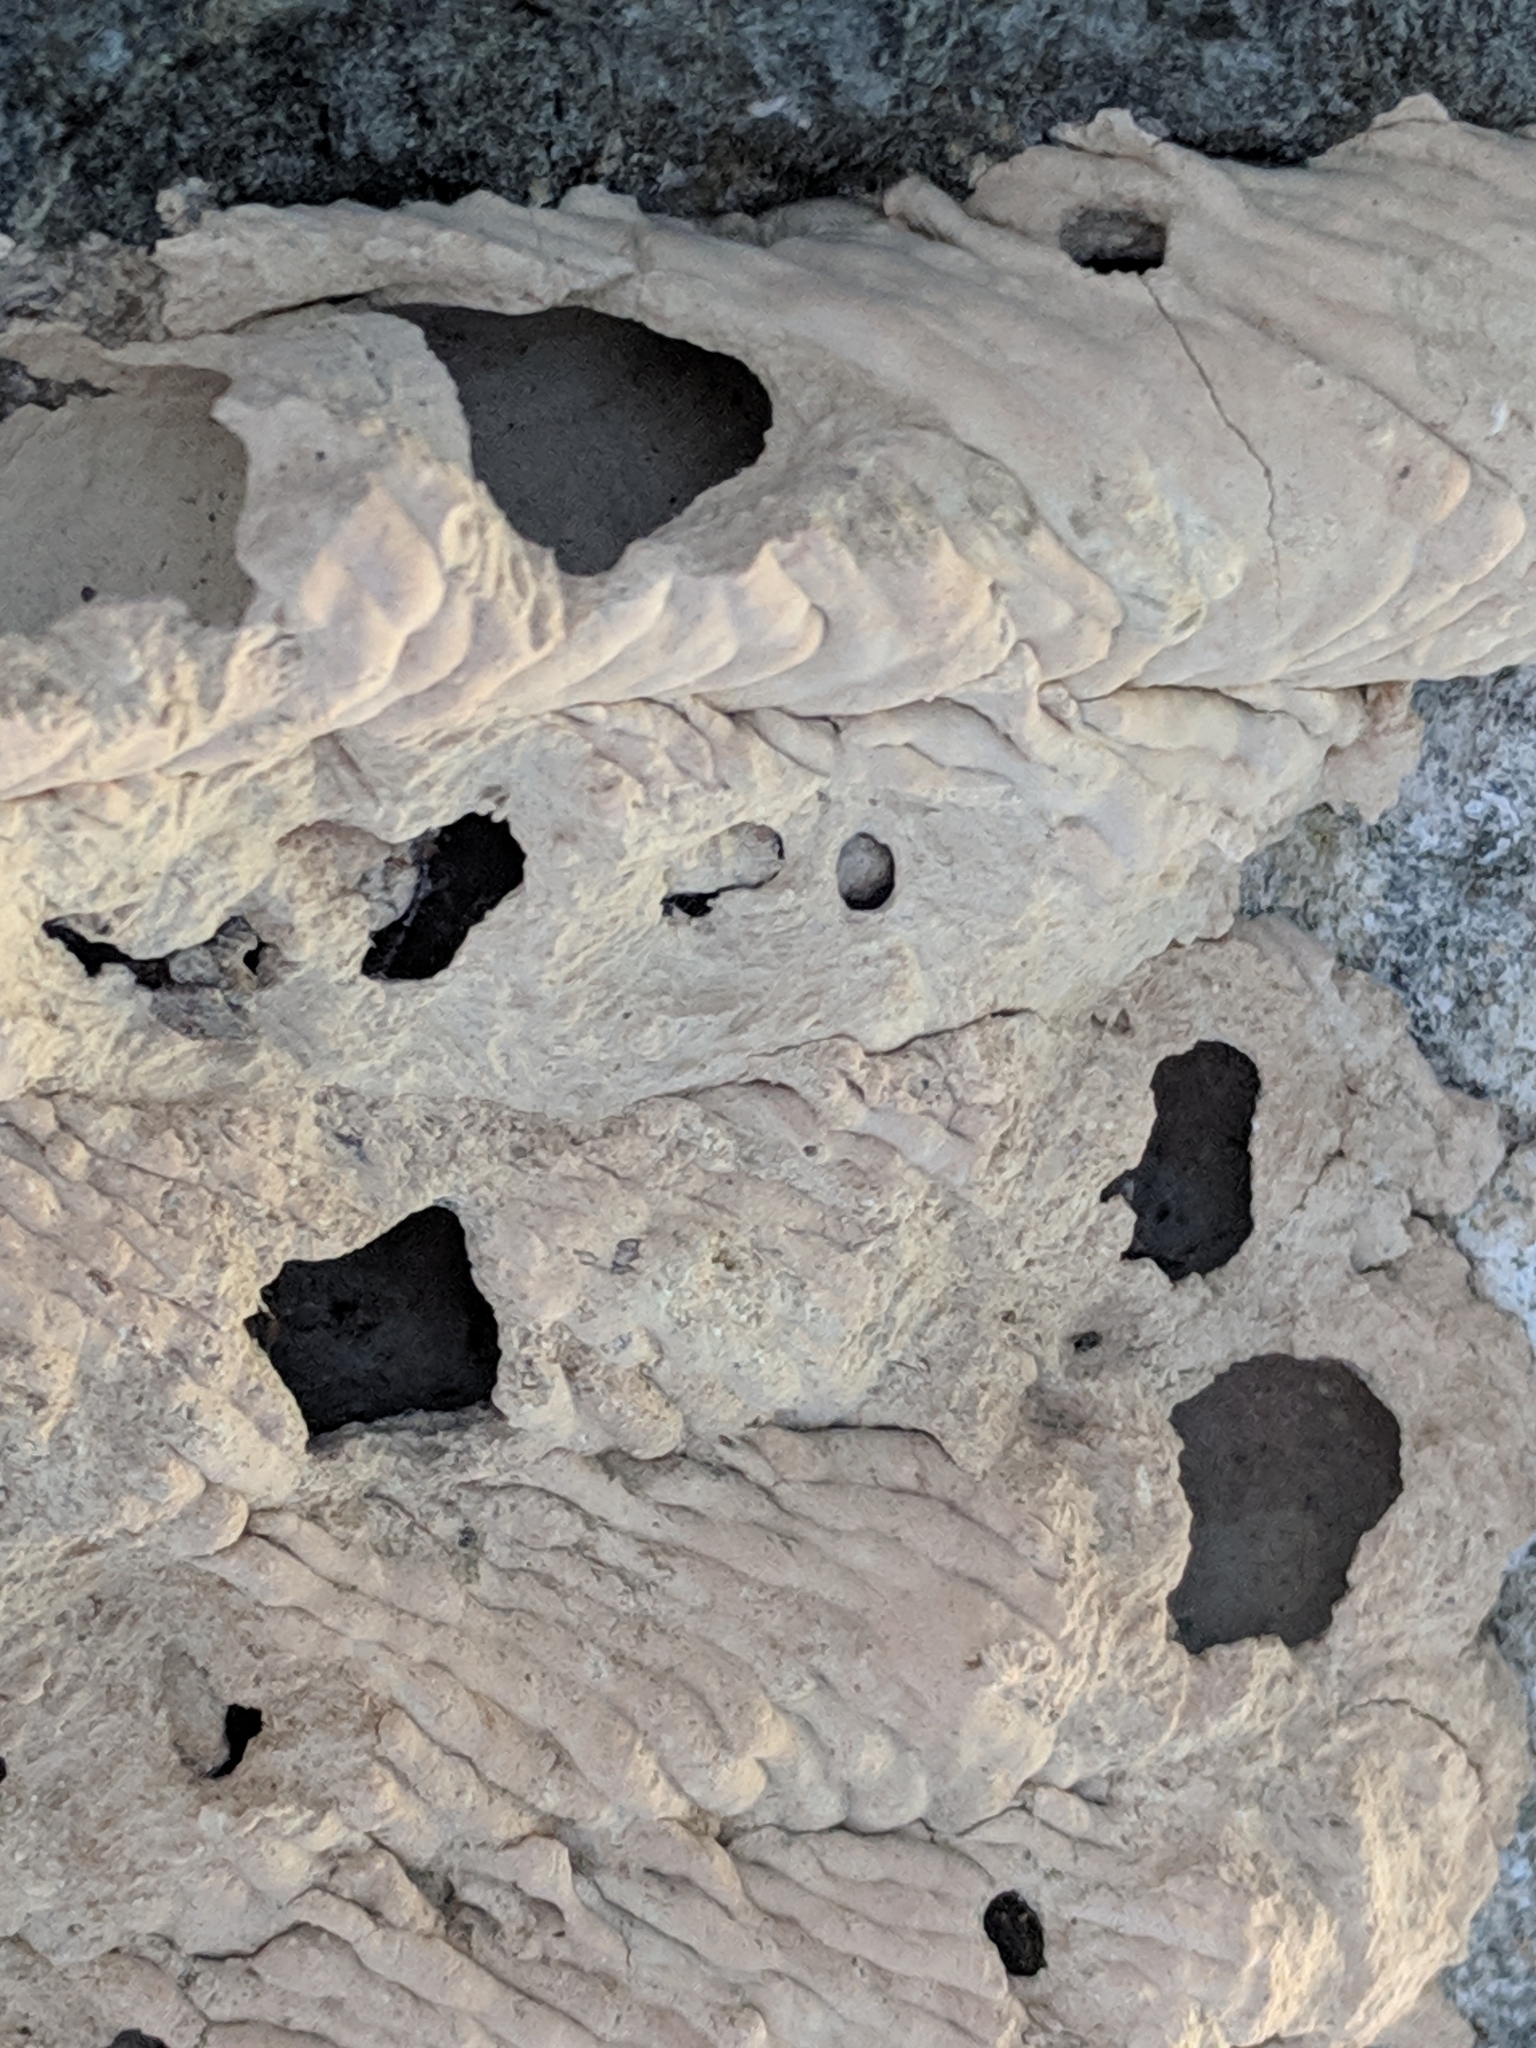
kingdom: Animalia
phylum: Arthropoda
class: Insecta
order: Hymenoptera
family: Crabronidae
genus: Trypoxylon
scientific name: Trypoxylon politum
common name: Organ-pipe mud-dauber wasp
